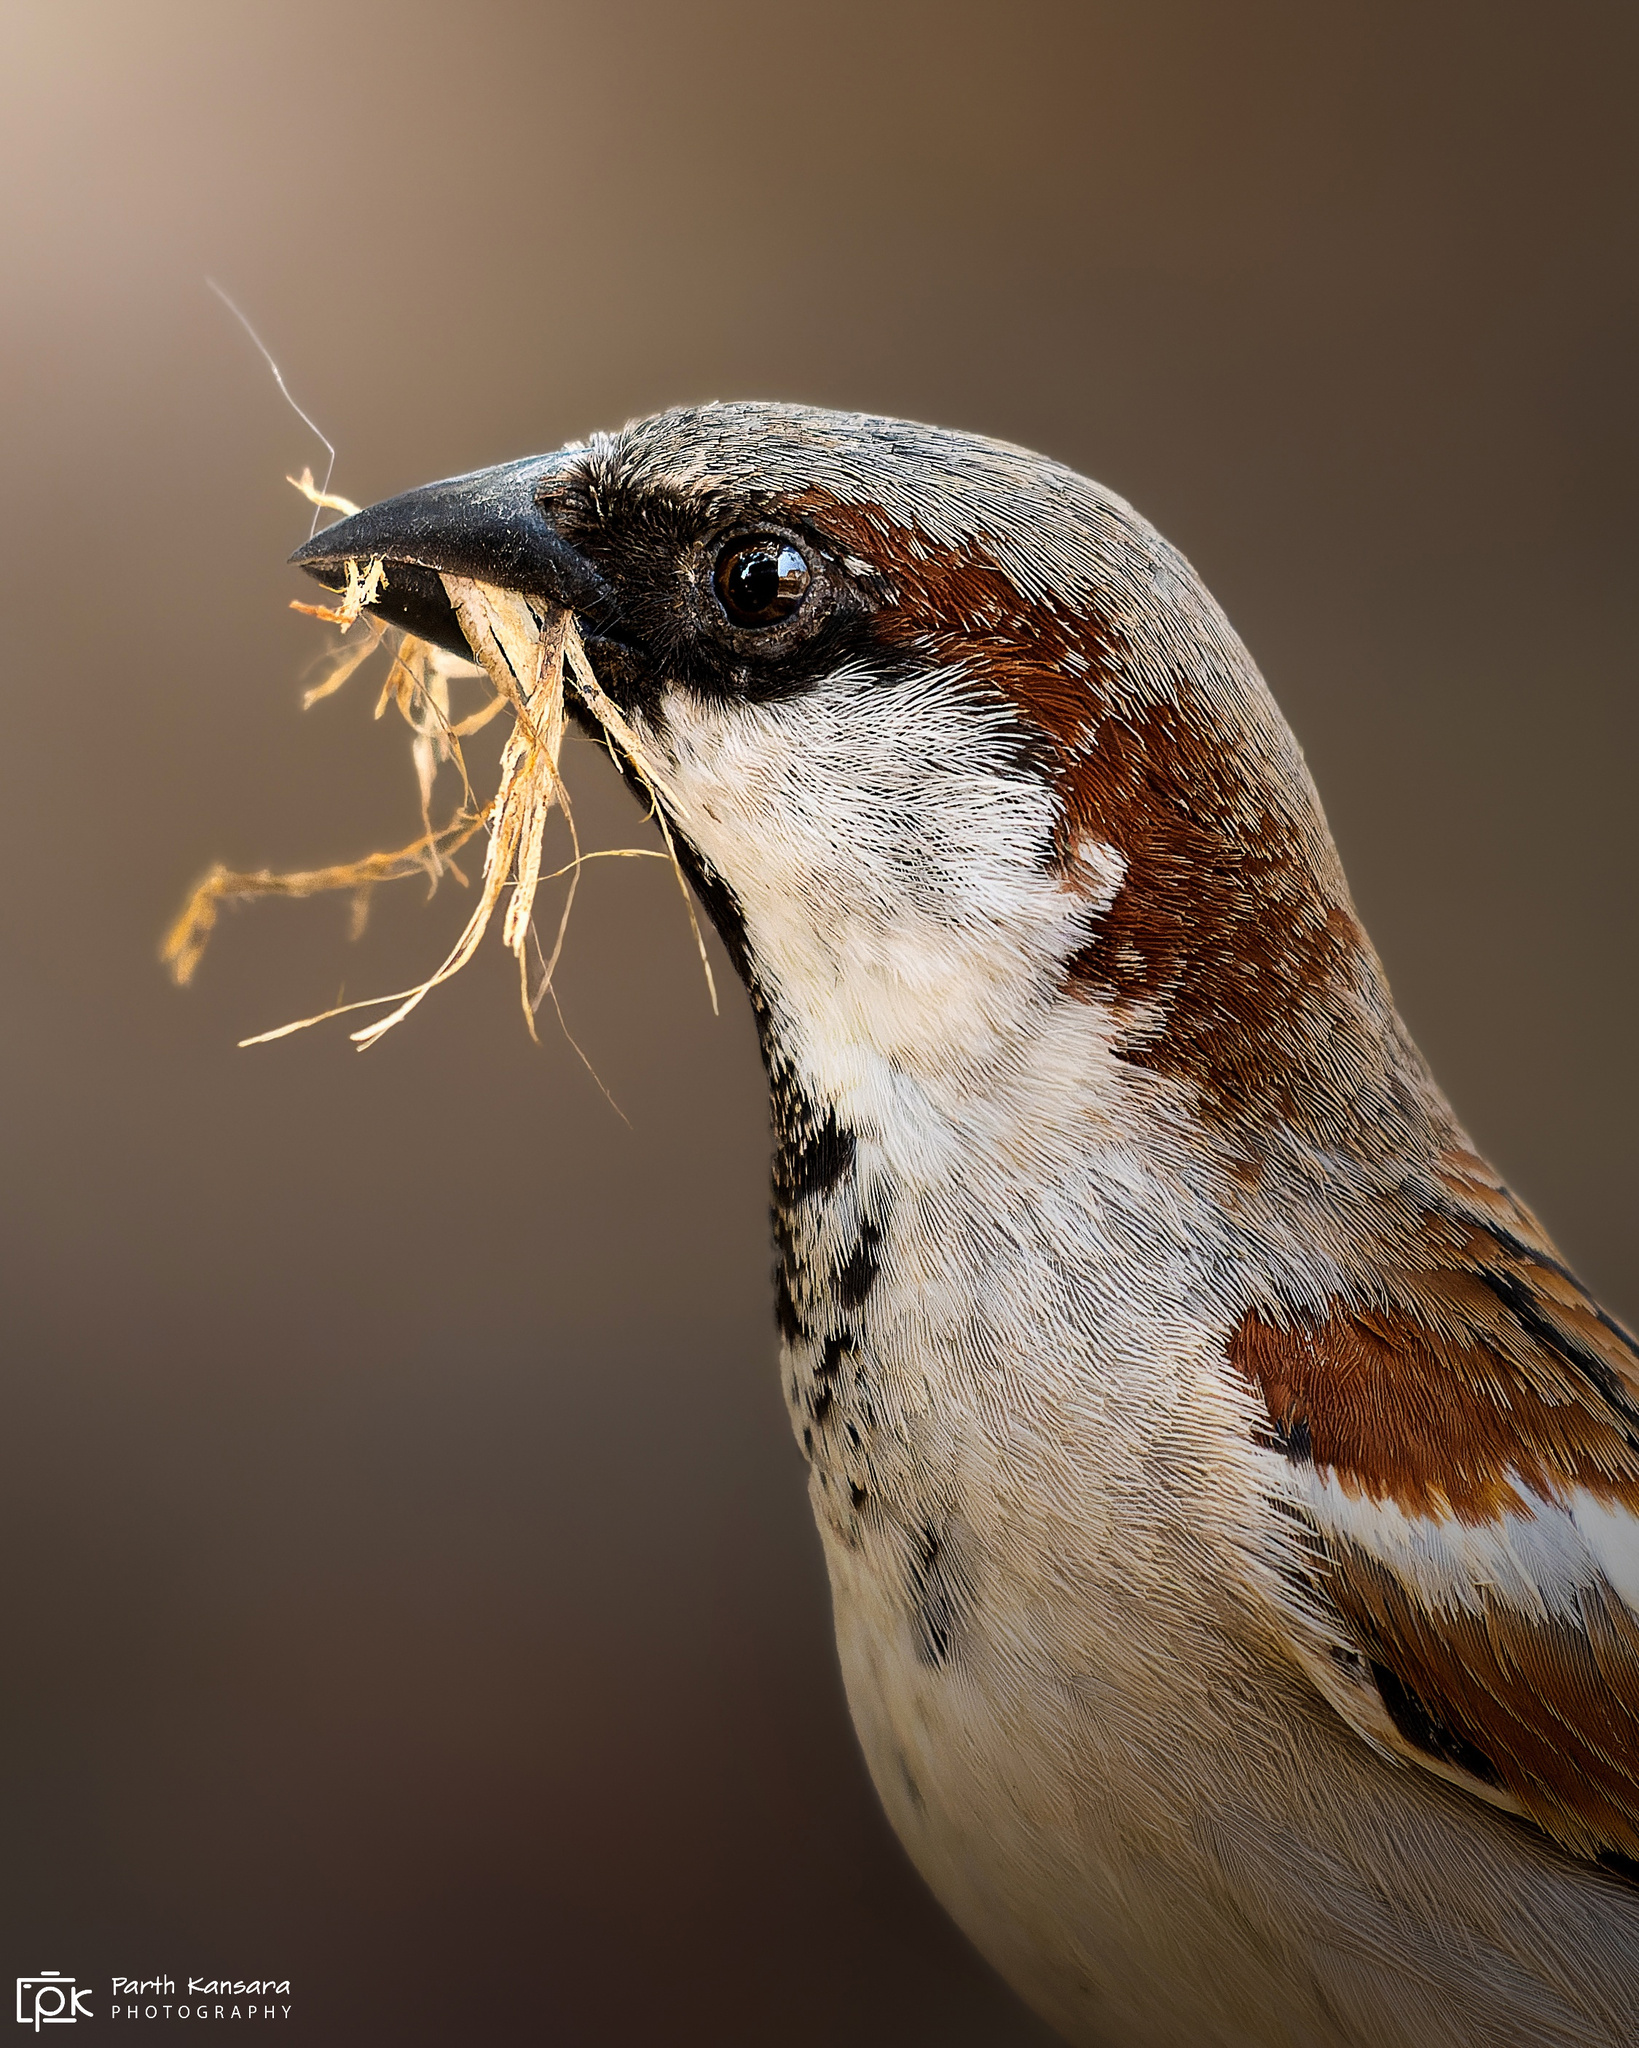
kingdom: Animalia
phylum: Chordata
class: Aves
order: Passeriformes
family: Passeridae
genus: Passer
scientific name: Passer domesticus
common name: House sparrow
